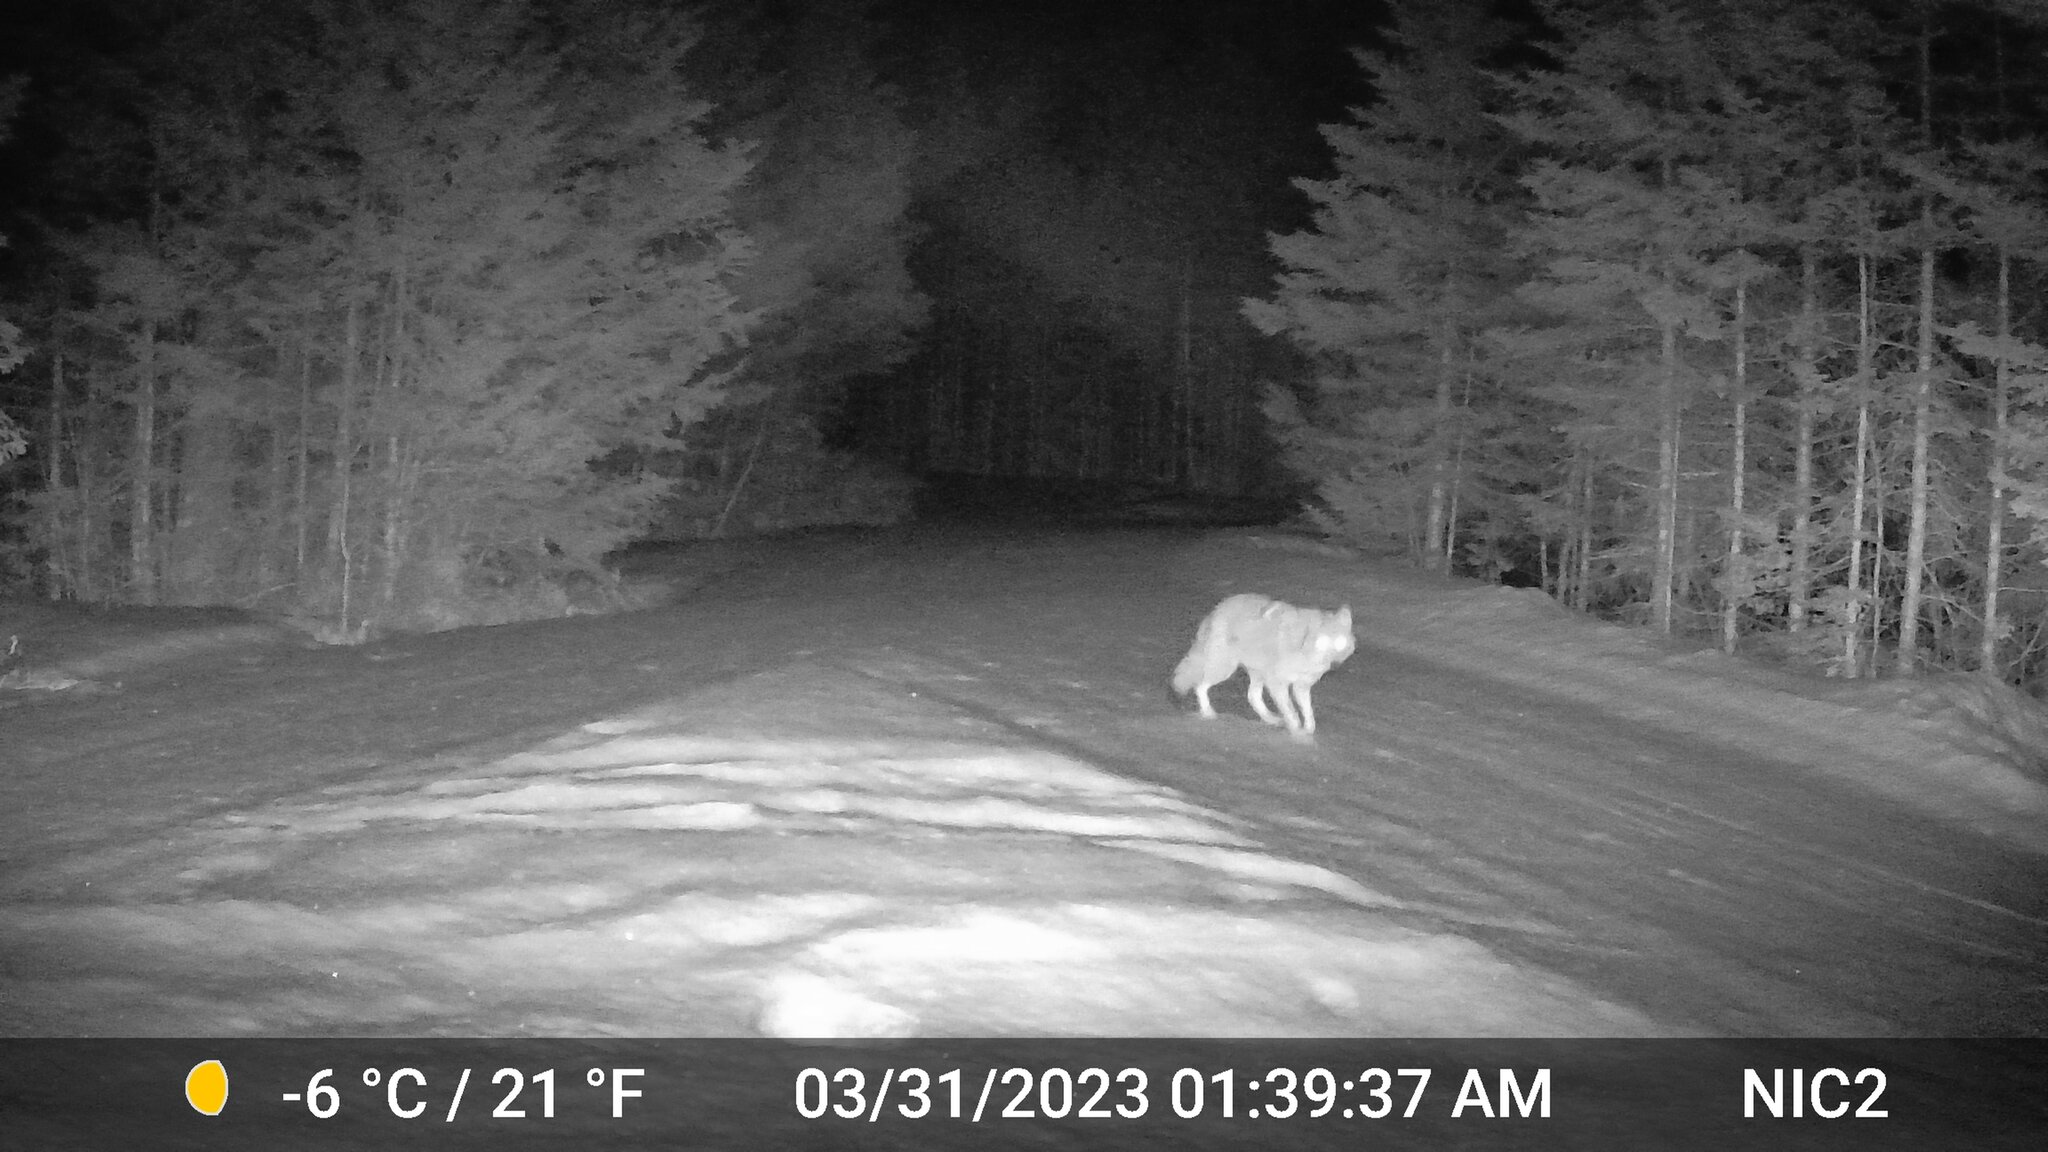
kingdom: Animalia
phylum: Chordata
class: Mammalia
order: Carnivora
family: Canidae
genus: Canis
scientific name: Canis latrans
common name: Coyote
